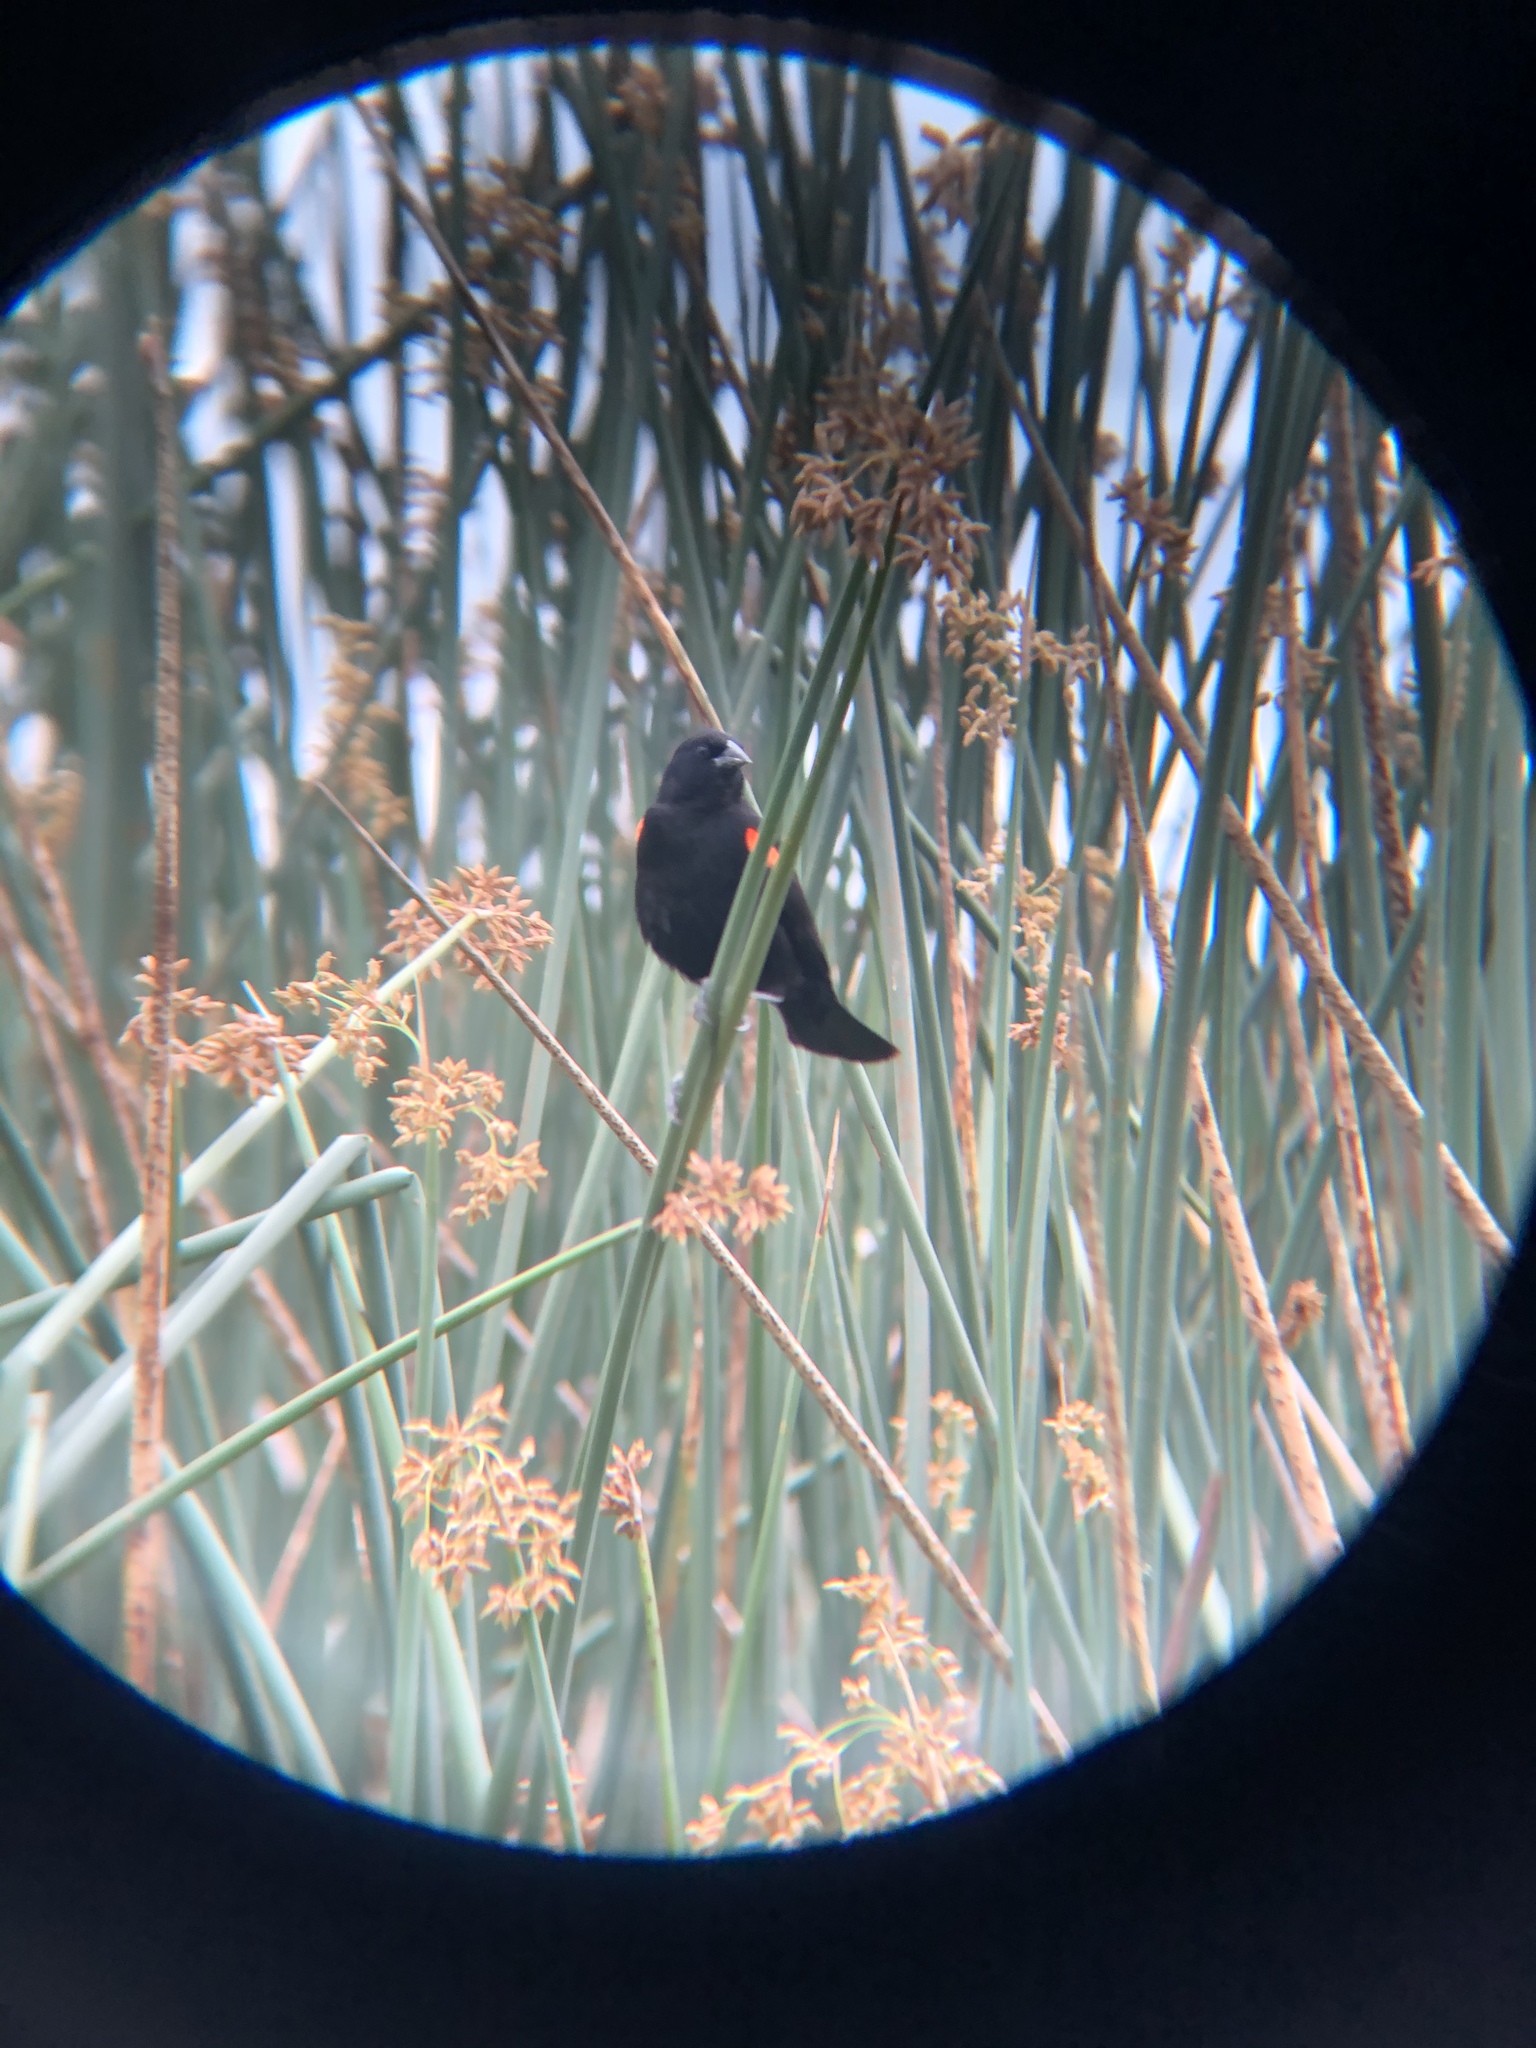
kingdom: Animalia
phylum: Chordata
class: Aves
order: Passeriformes
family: Icteridae
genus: Agelaius
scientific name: Agelaius phoeniceus
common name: Red-winged blackbird
